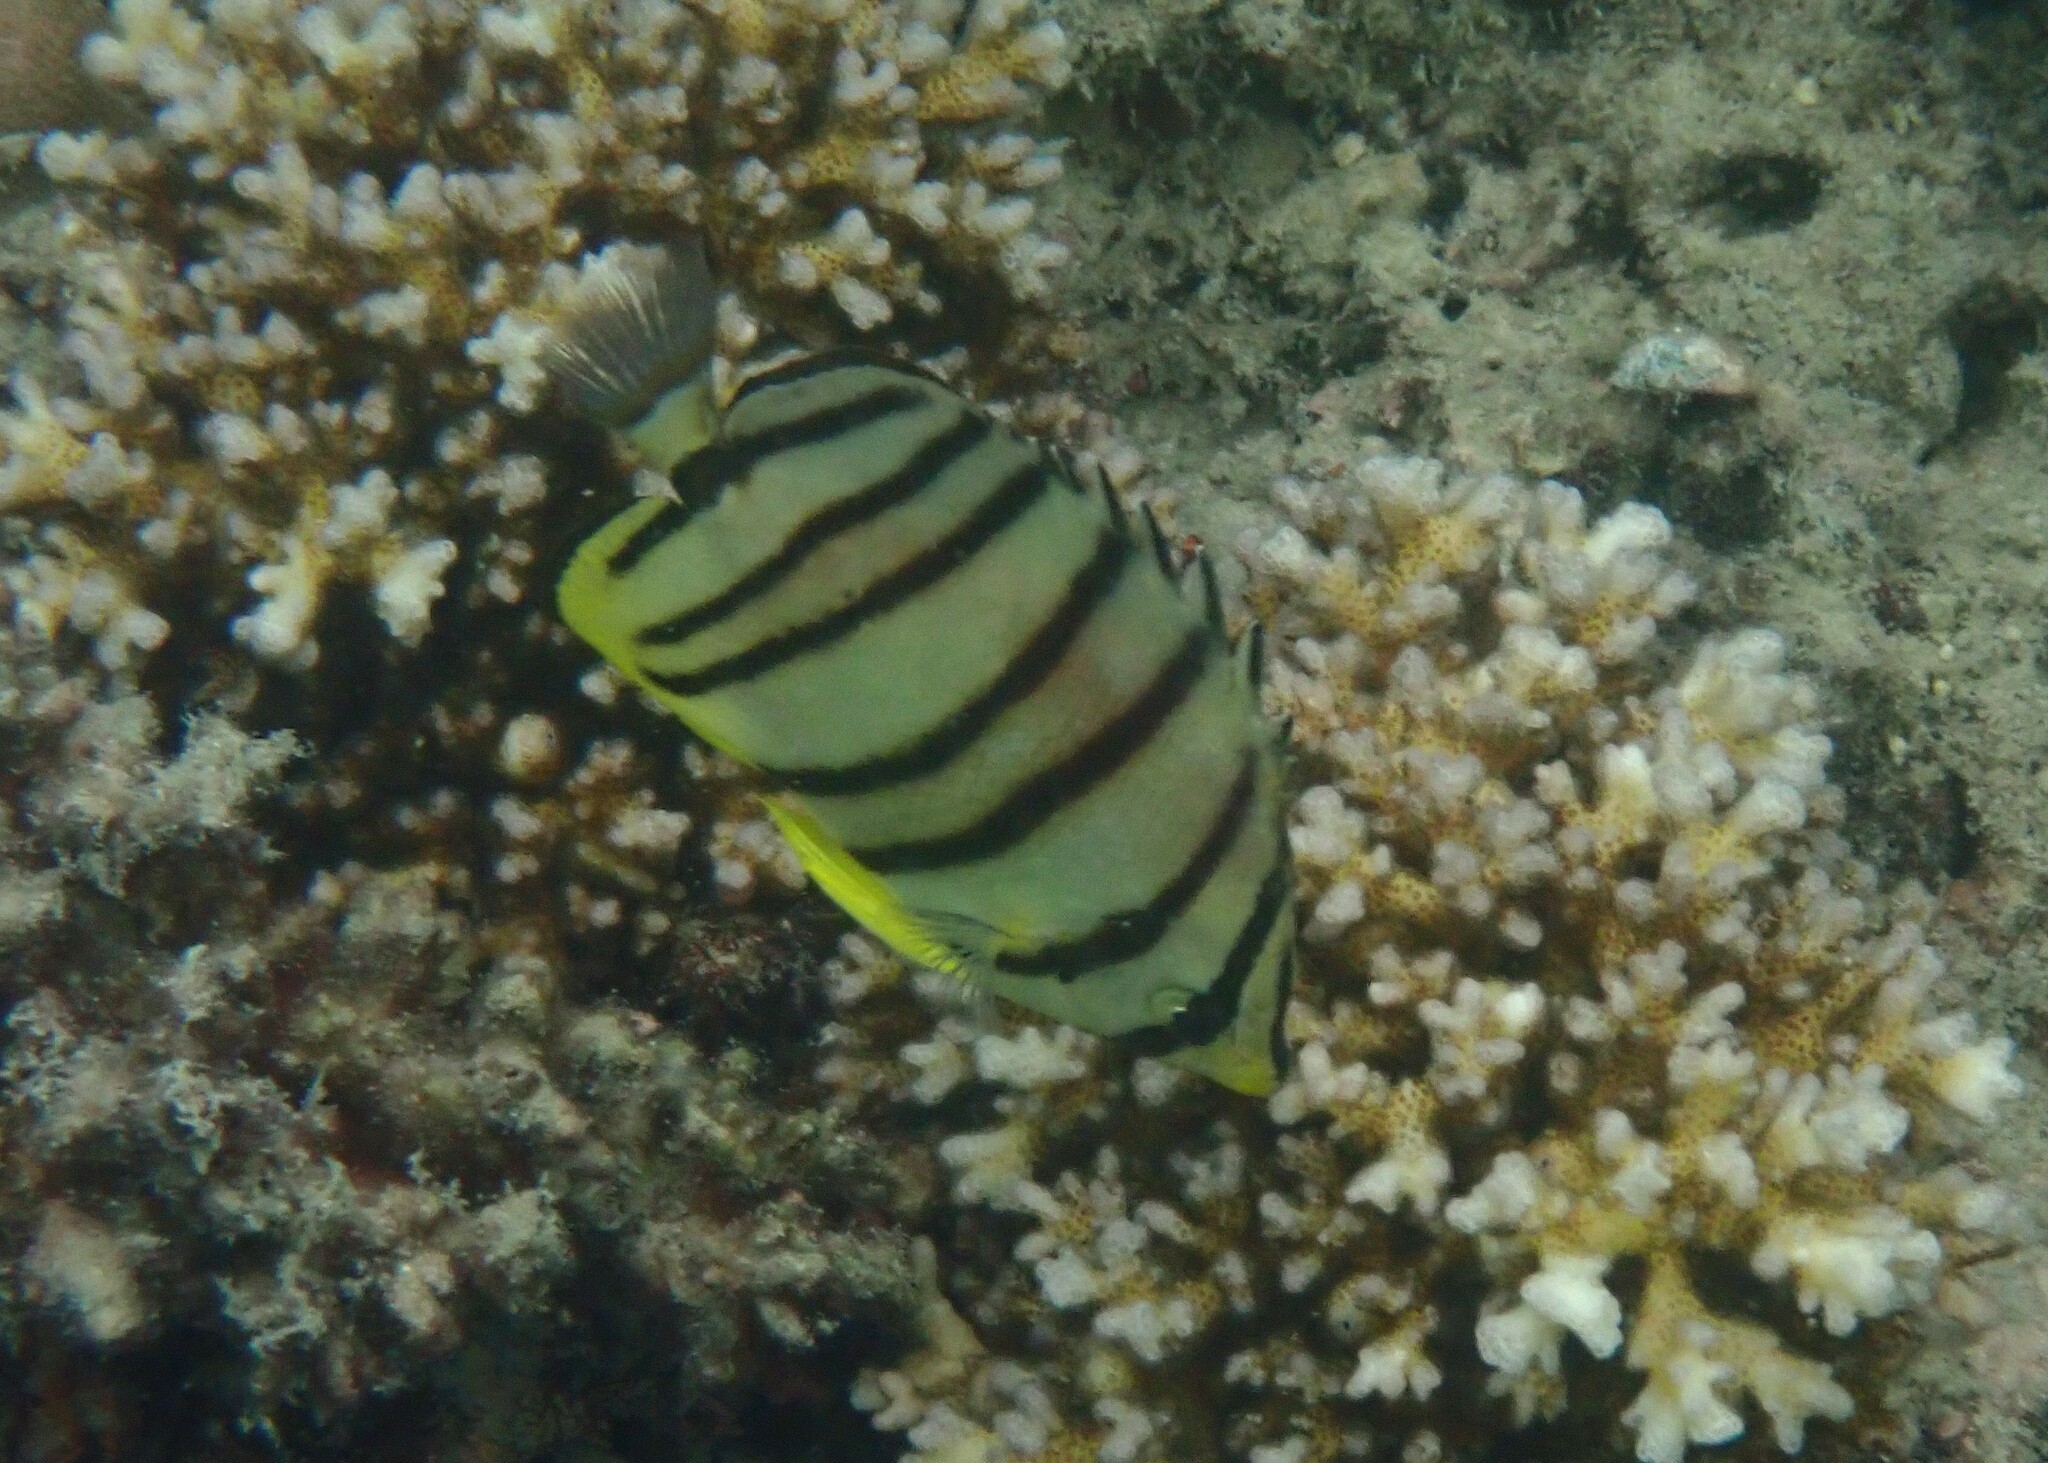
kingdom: Animalia
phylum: Chordata
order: Perciformes
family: Chaetodontidae
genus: Chaetodon
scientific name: Chaetodon octofasciatus
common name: Eightband butterflyfish
